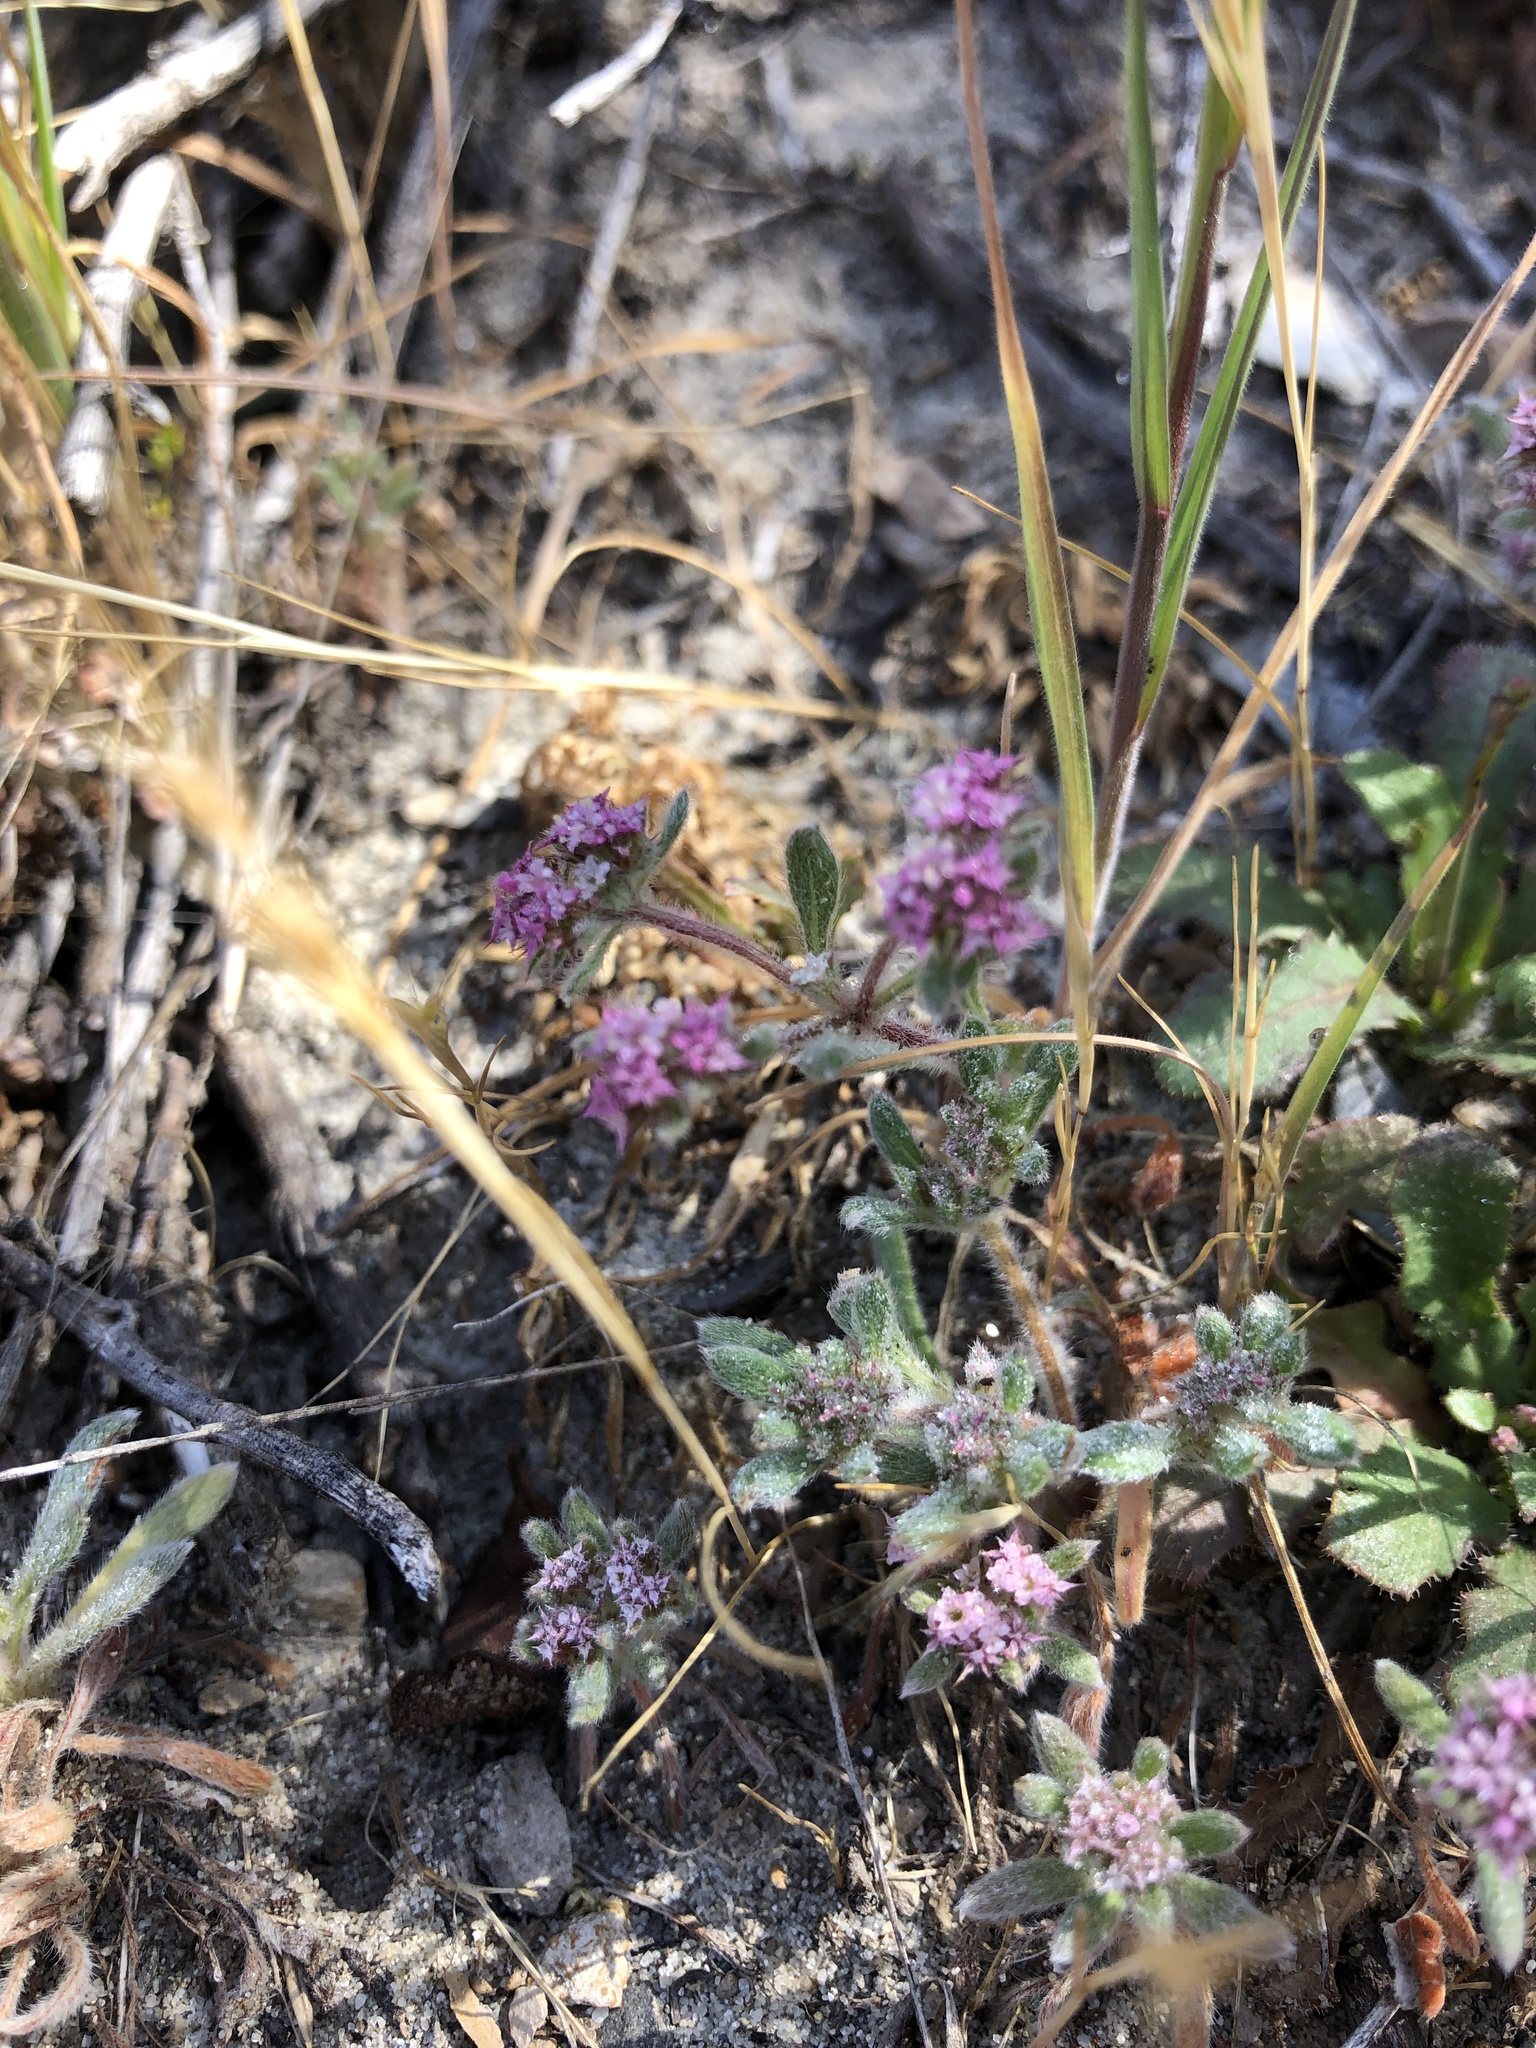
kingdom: Plantae
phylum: Tracheophyta
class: Magnoliopsida
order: Caryophyllales
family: Polygonaceae
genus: Chorizanthe
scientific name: Chorizanthe pungens
